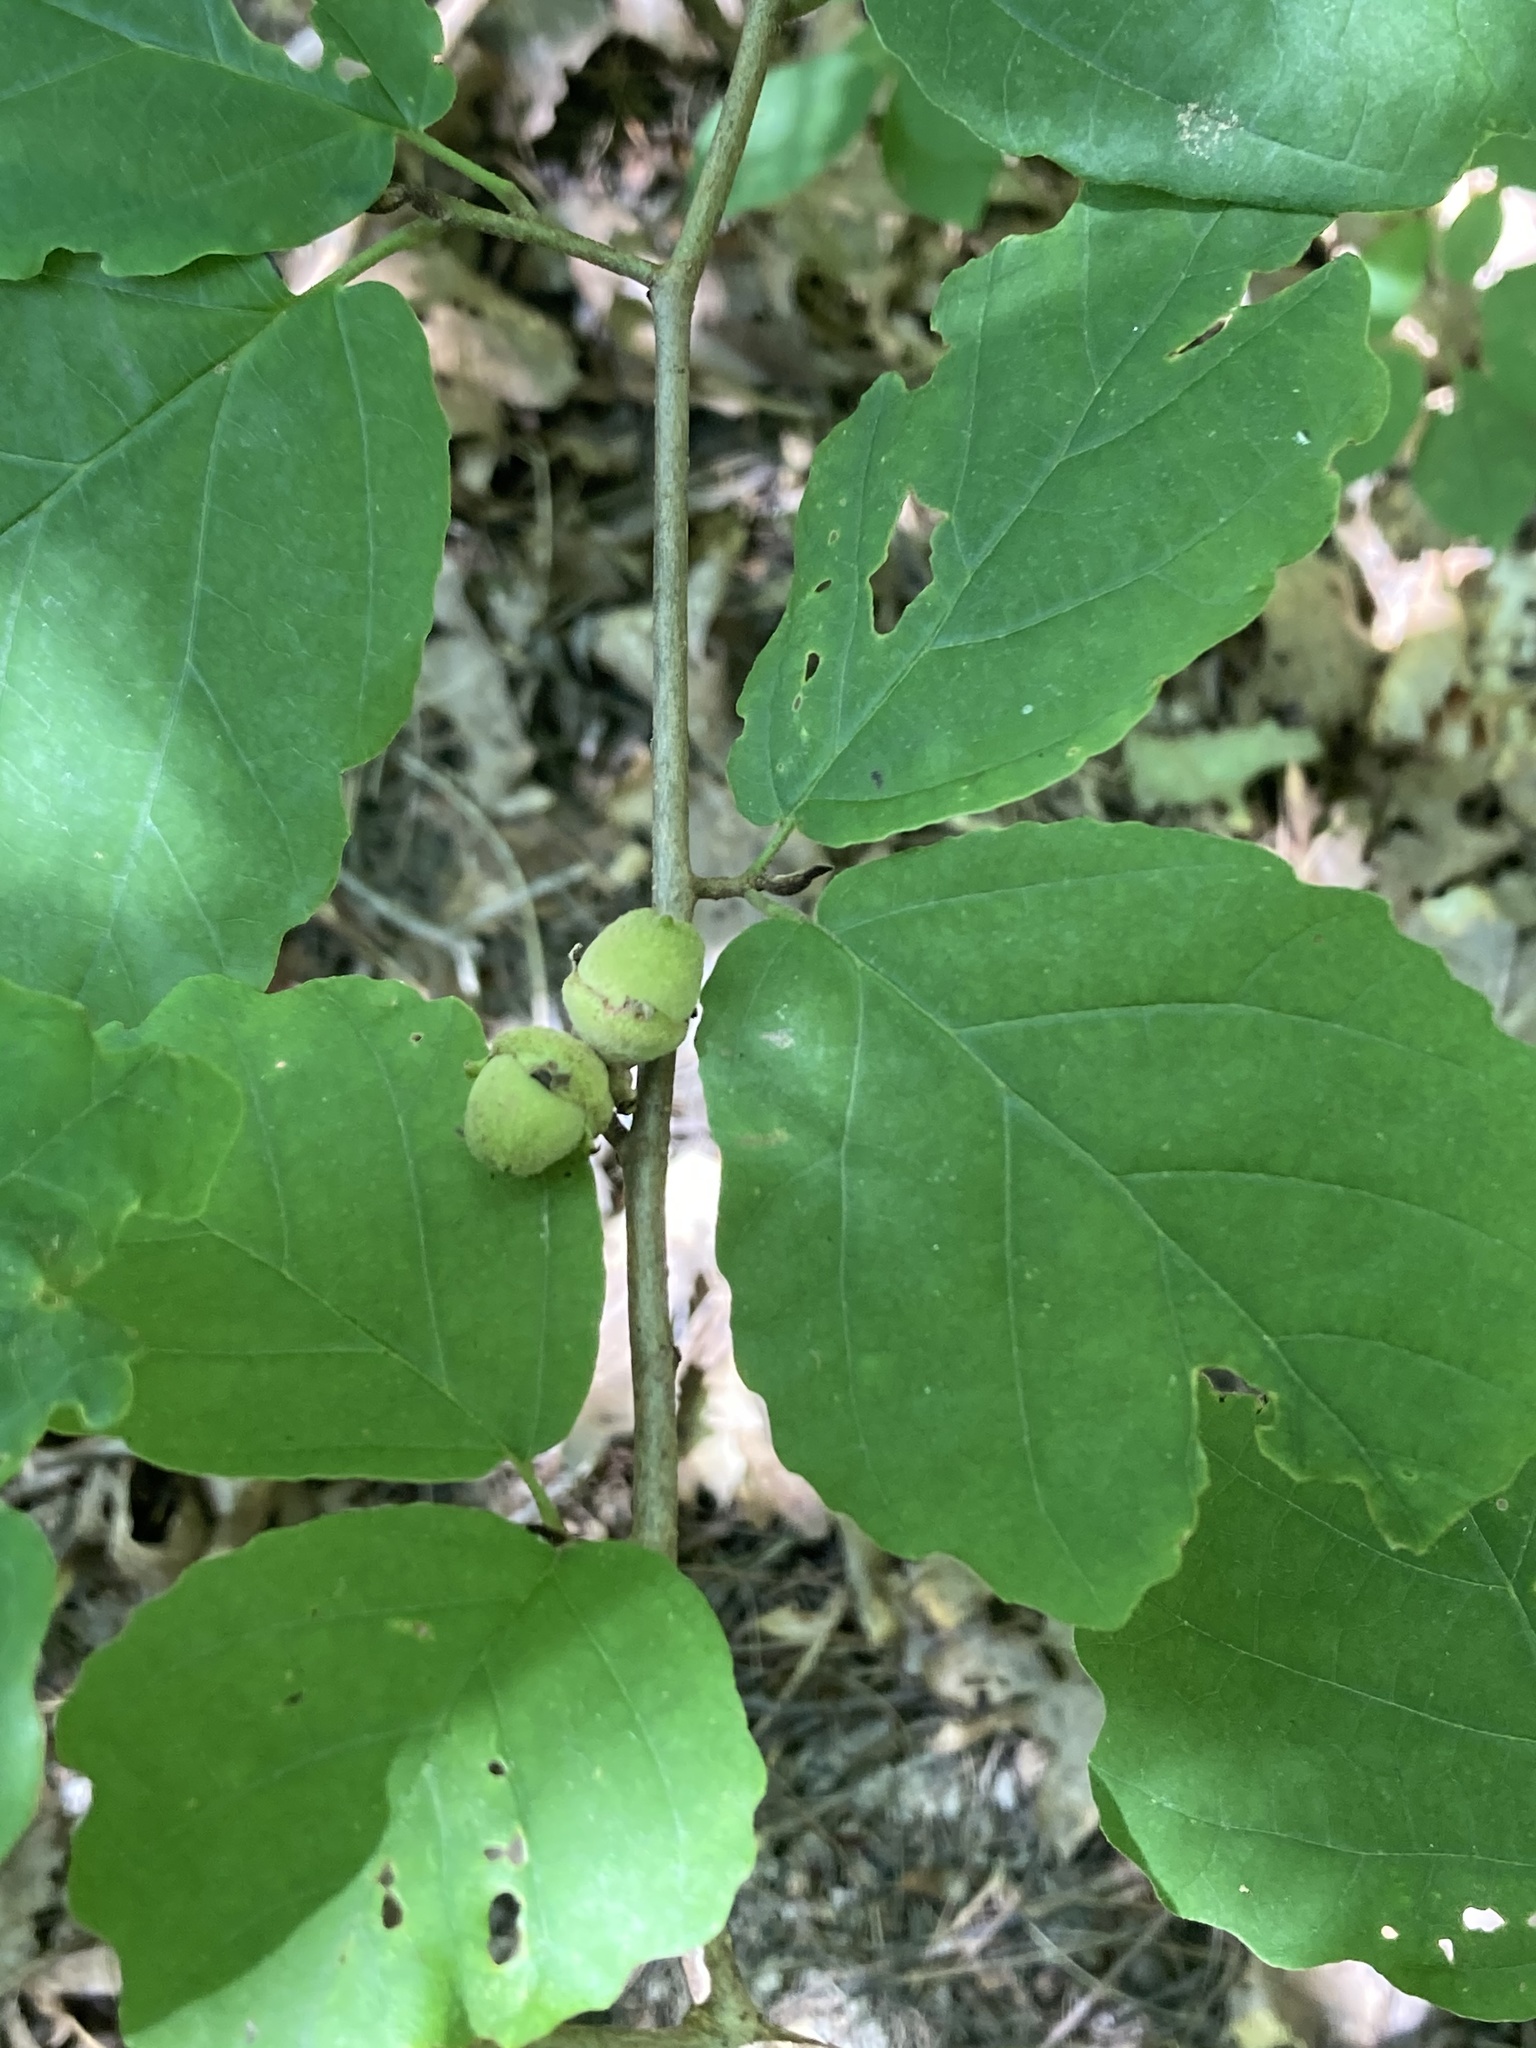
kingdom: Plantae
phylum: Tracheophyta
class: Magnoliopsida
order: Saxifragales
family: Hamamelidaceae
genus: Hamamelis
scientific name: Hamamelis virginiana
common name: Witch-hazel
